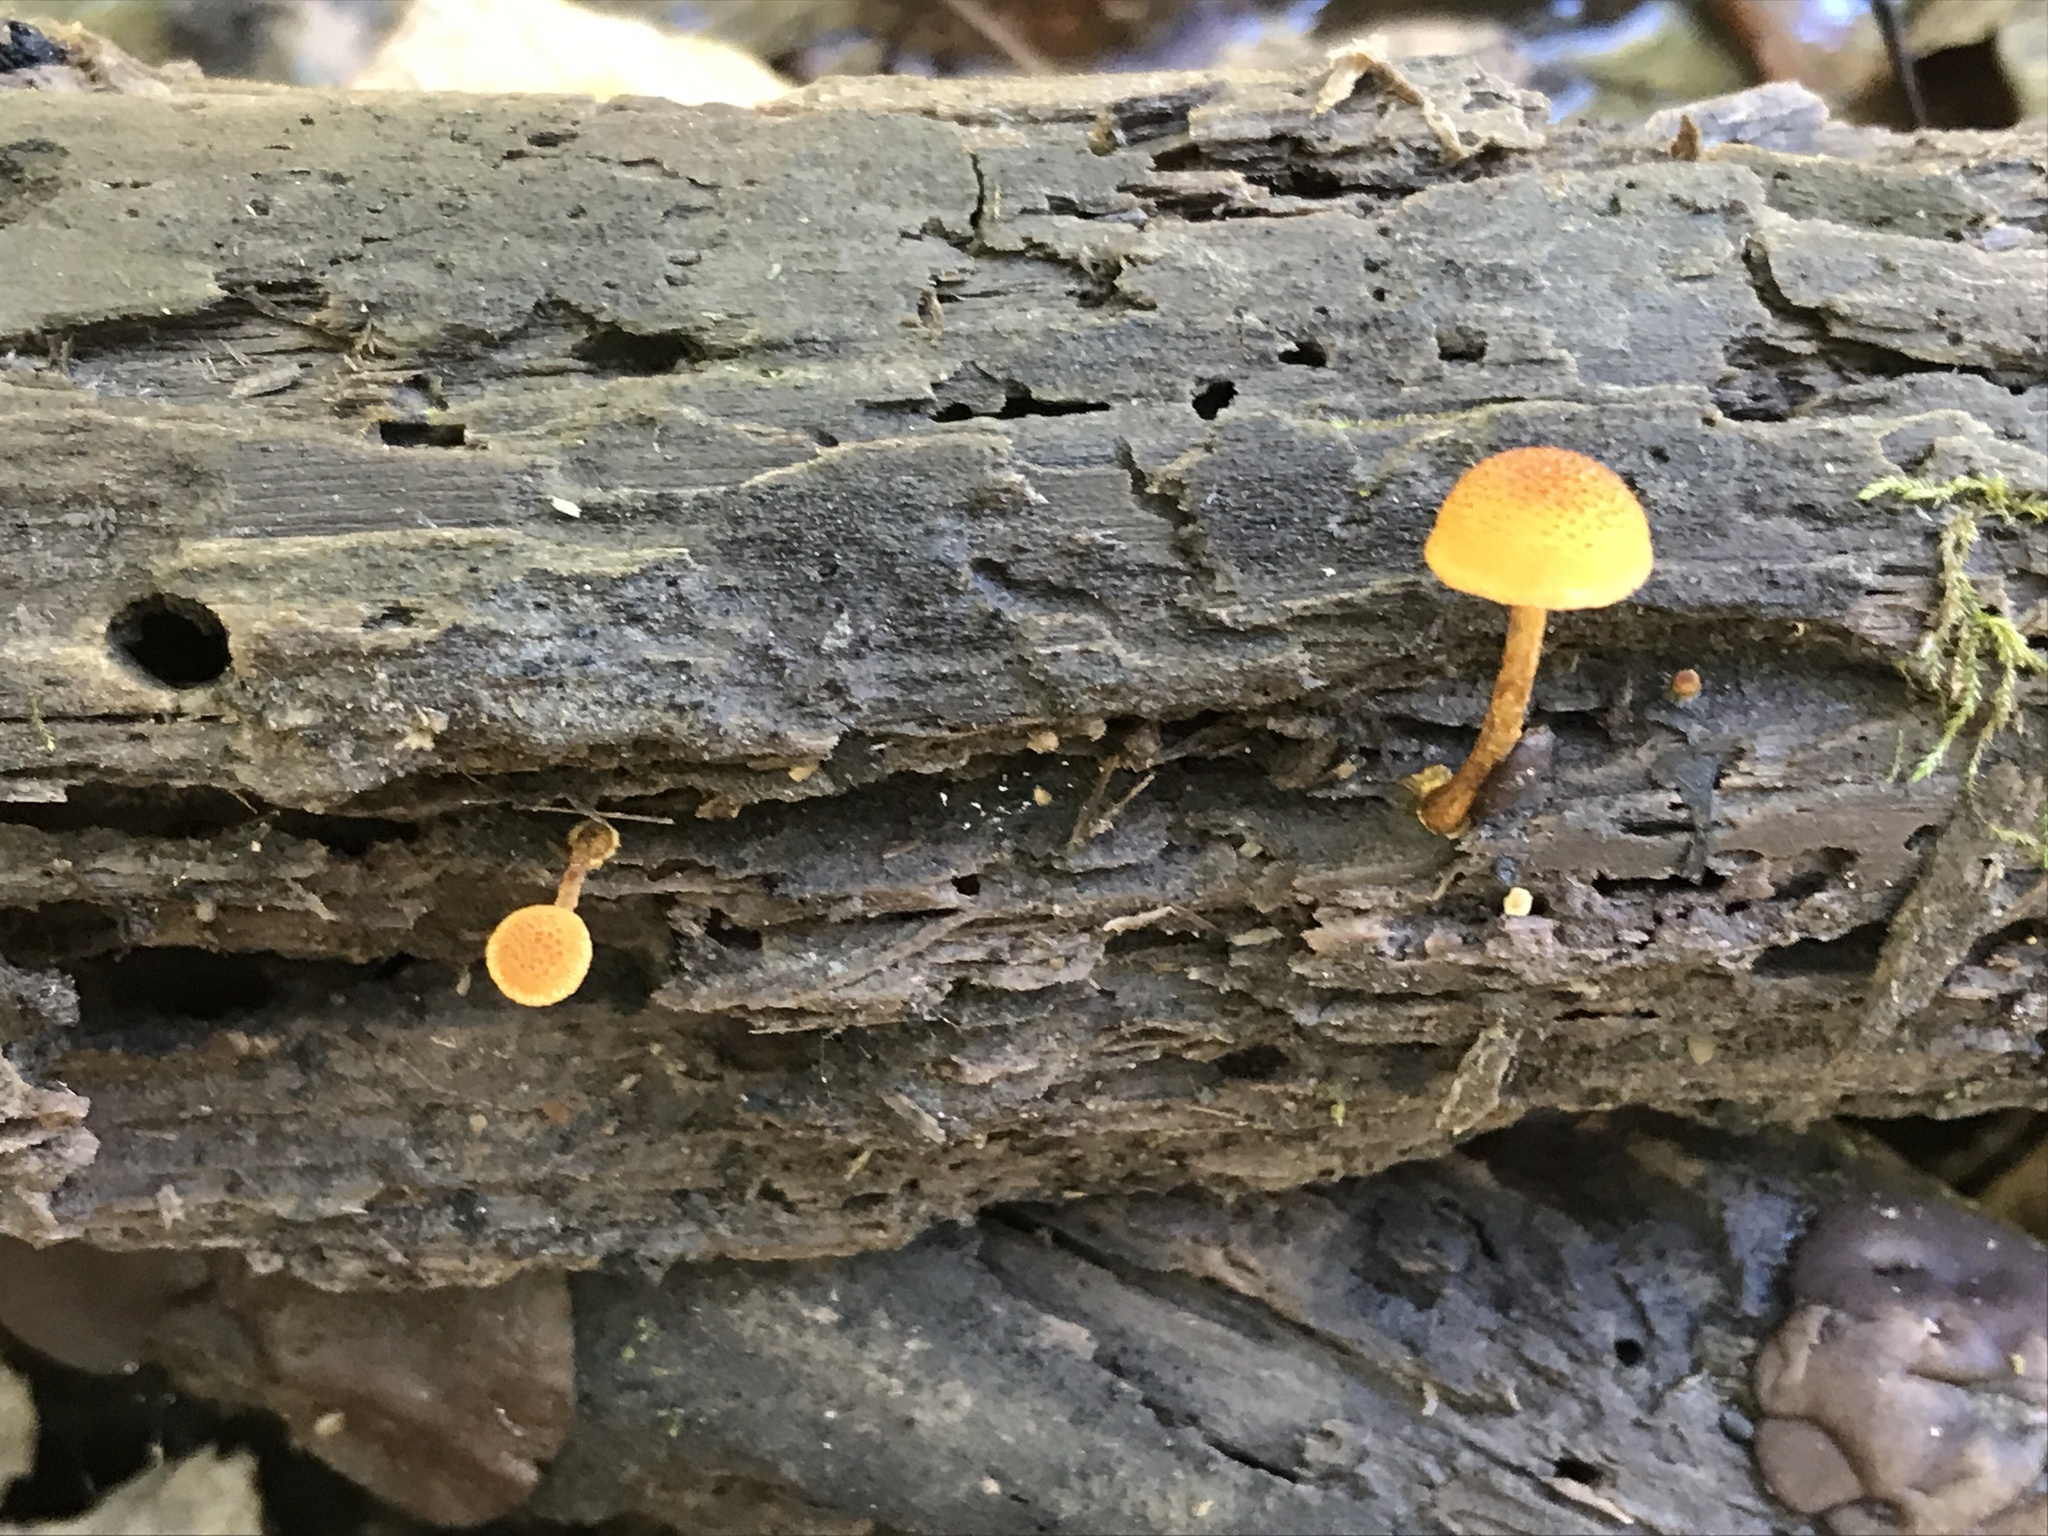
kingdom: Fungi
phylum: Basidiomycota
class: Agaricomycetes
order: Agaricales
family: Tubariaceae
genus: Flammulaster
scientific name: Flammulaster erinaceellus
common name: Powder-scale pholiota
